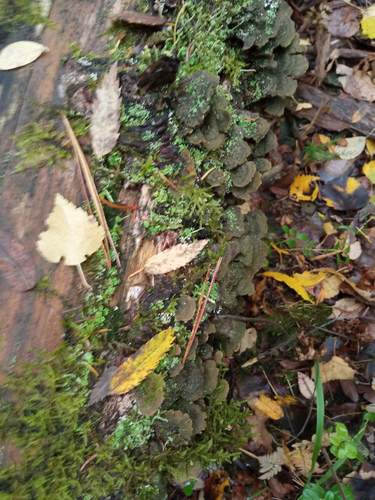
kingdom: Fungi
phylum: Basidiomycota
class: Agaricomycetes
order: Hymenochaetales
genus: Trichaptum
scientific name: Trichaptum fuscoviolaceum
